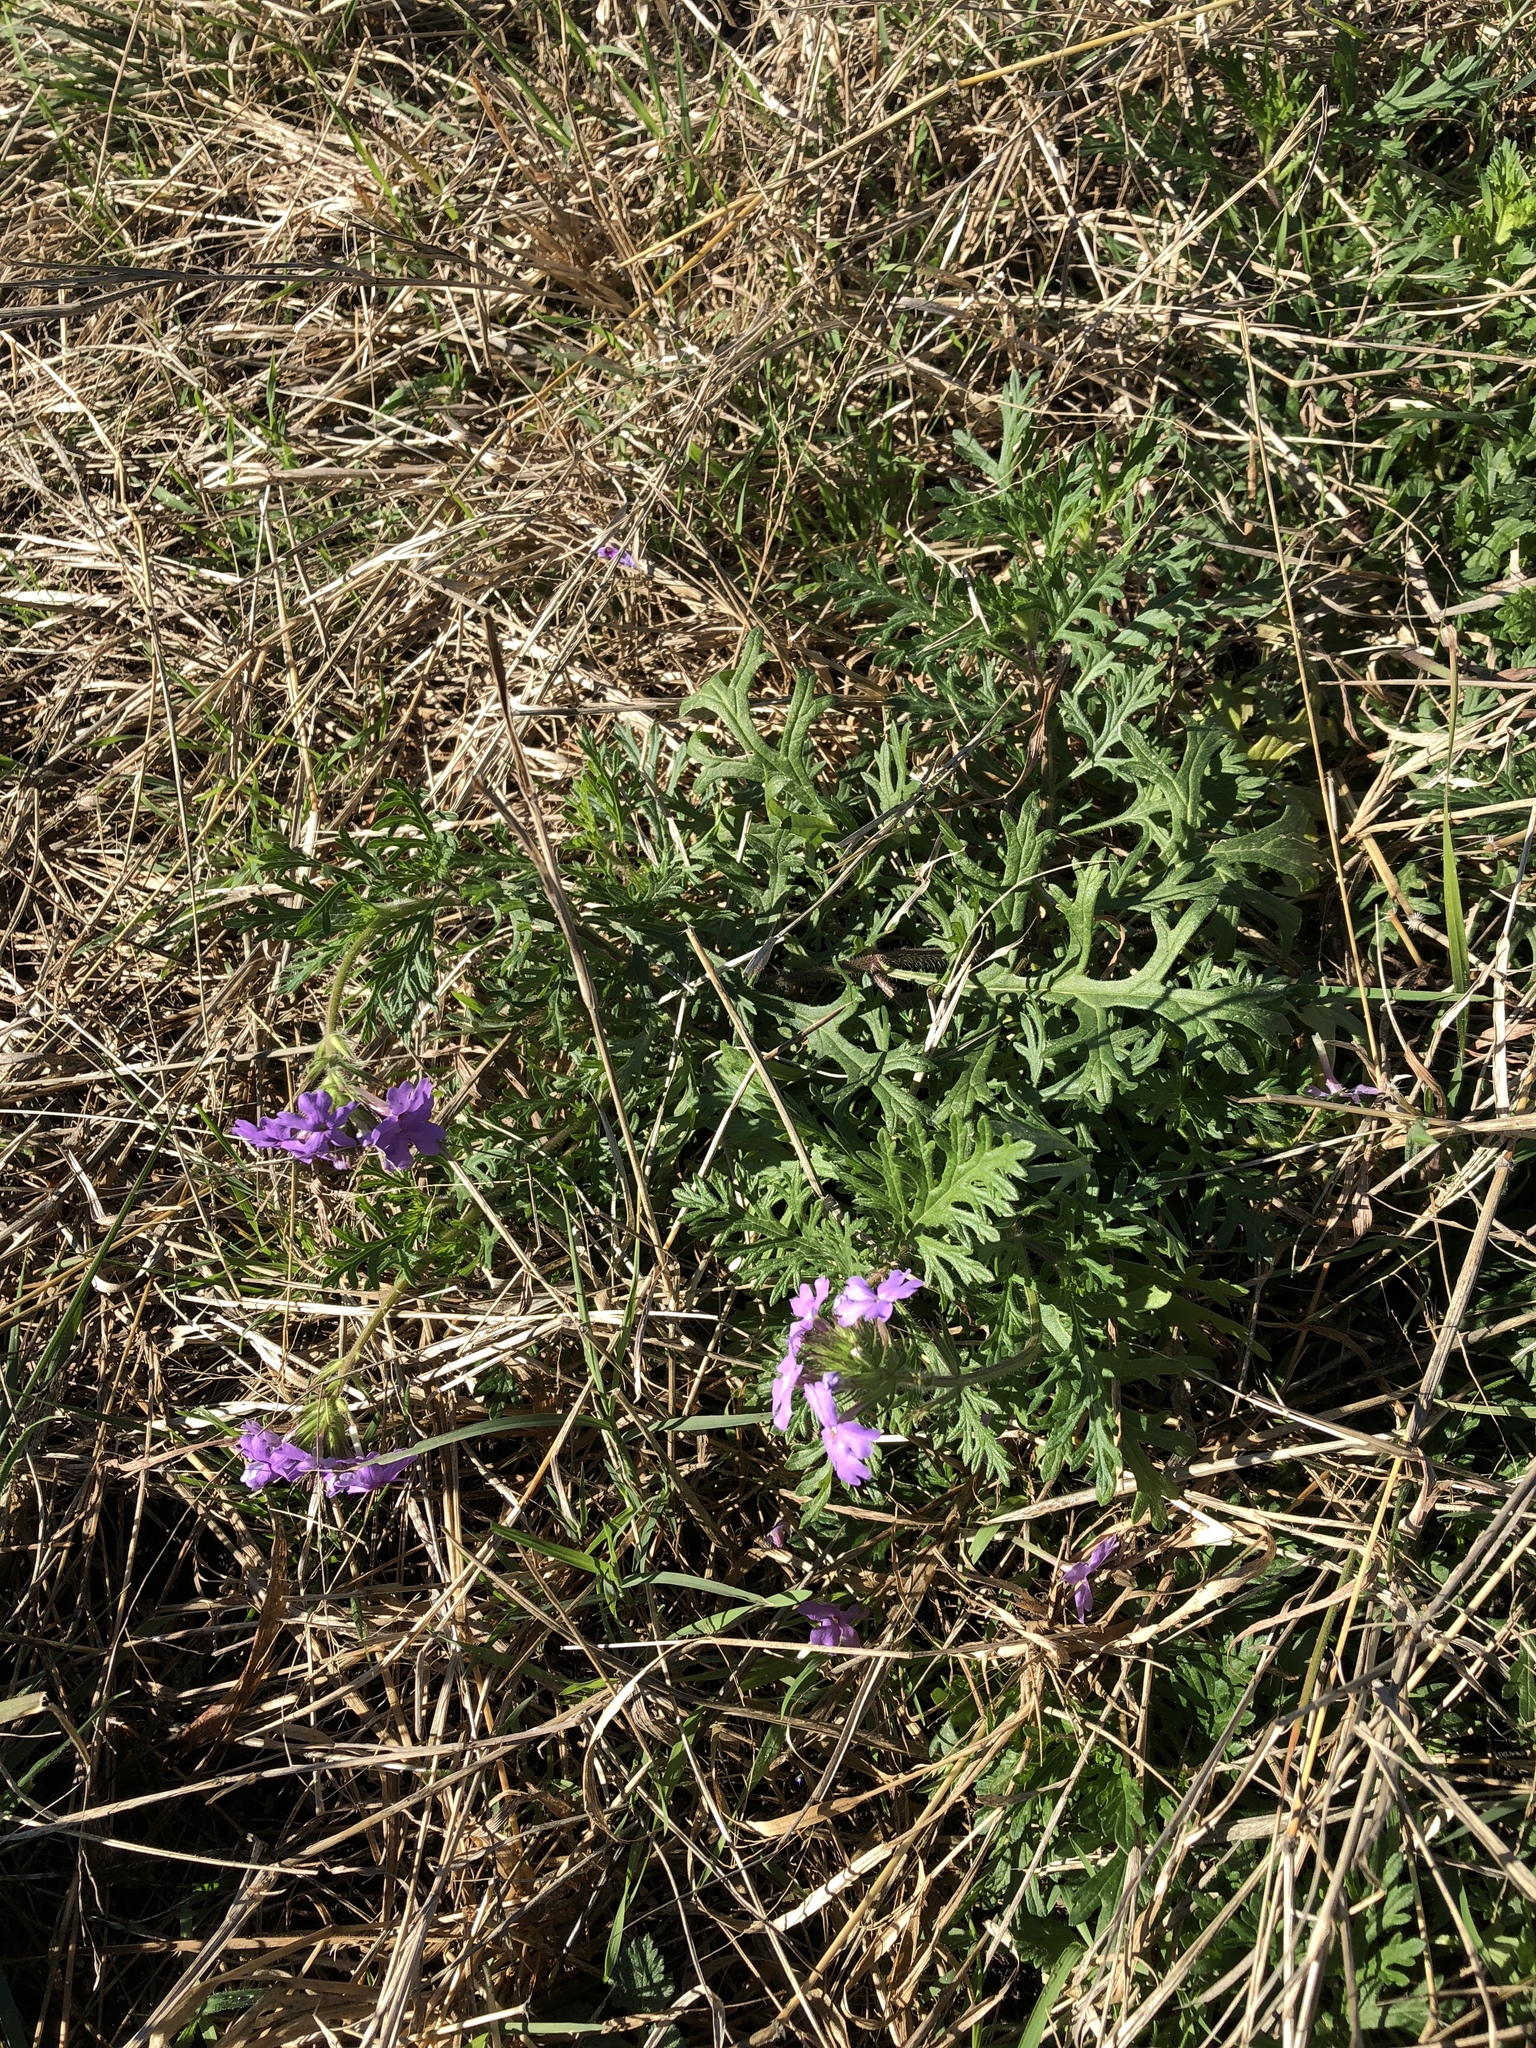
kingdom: Plantae
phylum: Tracheophyta
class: Magnoliopsida
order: Lamiales
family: Verbenaceae
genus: Verbena
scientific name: Verbena bipinnatifida
